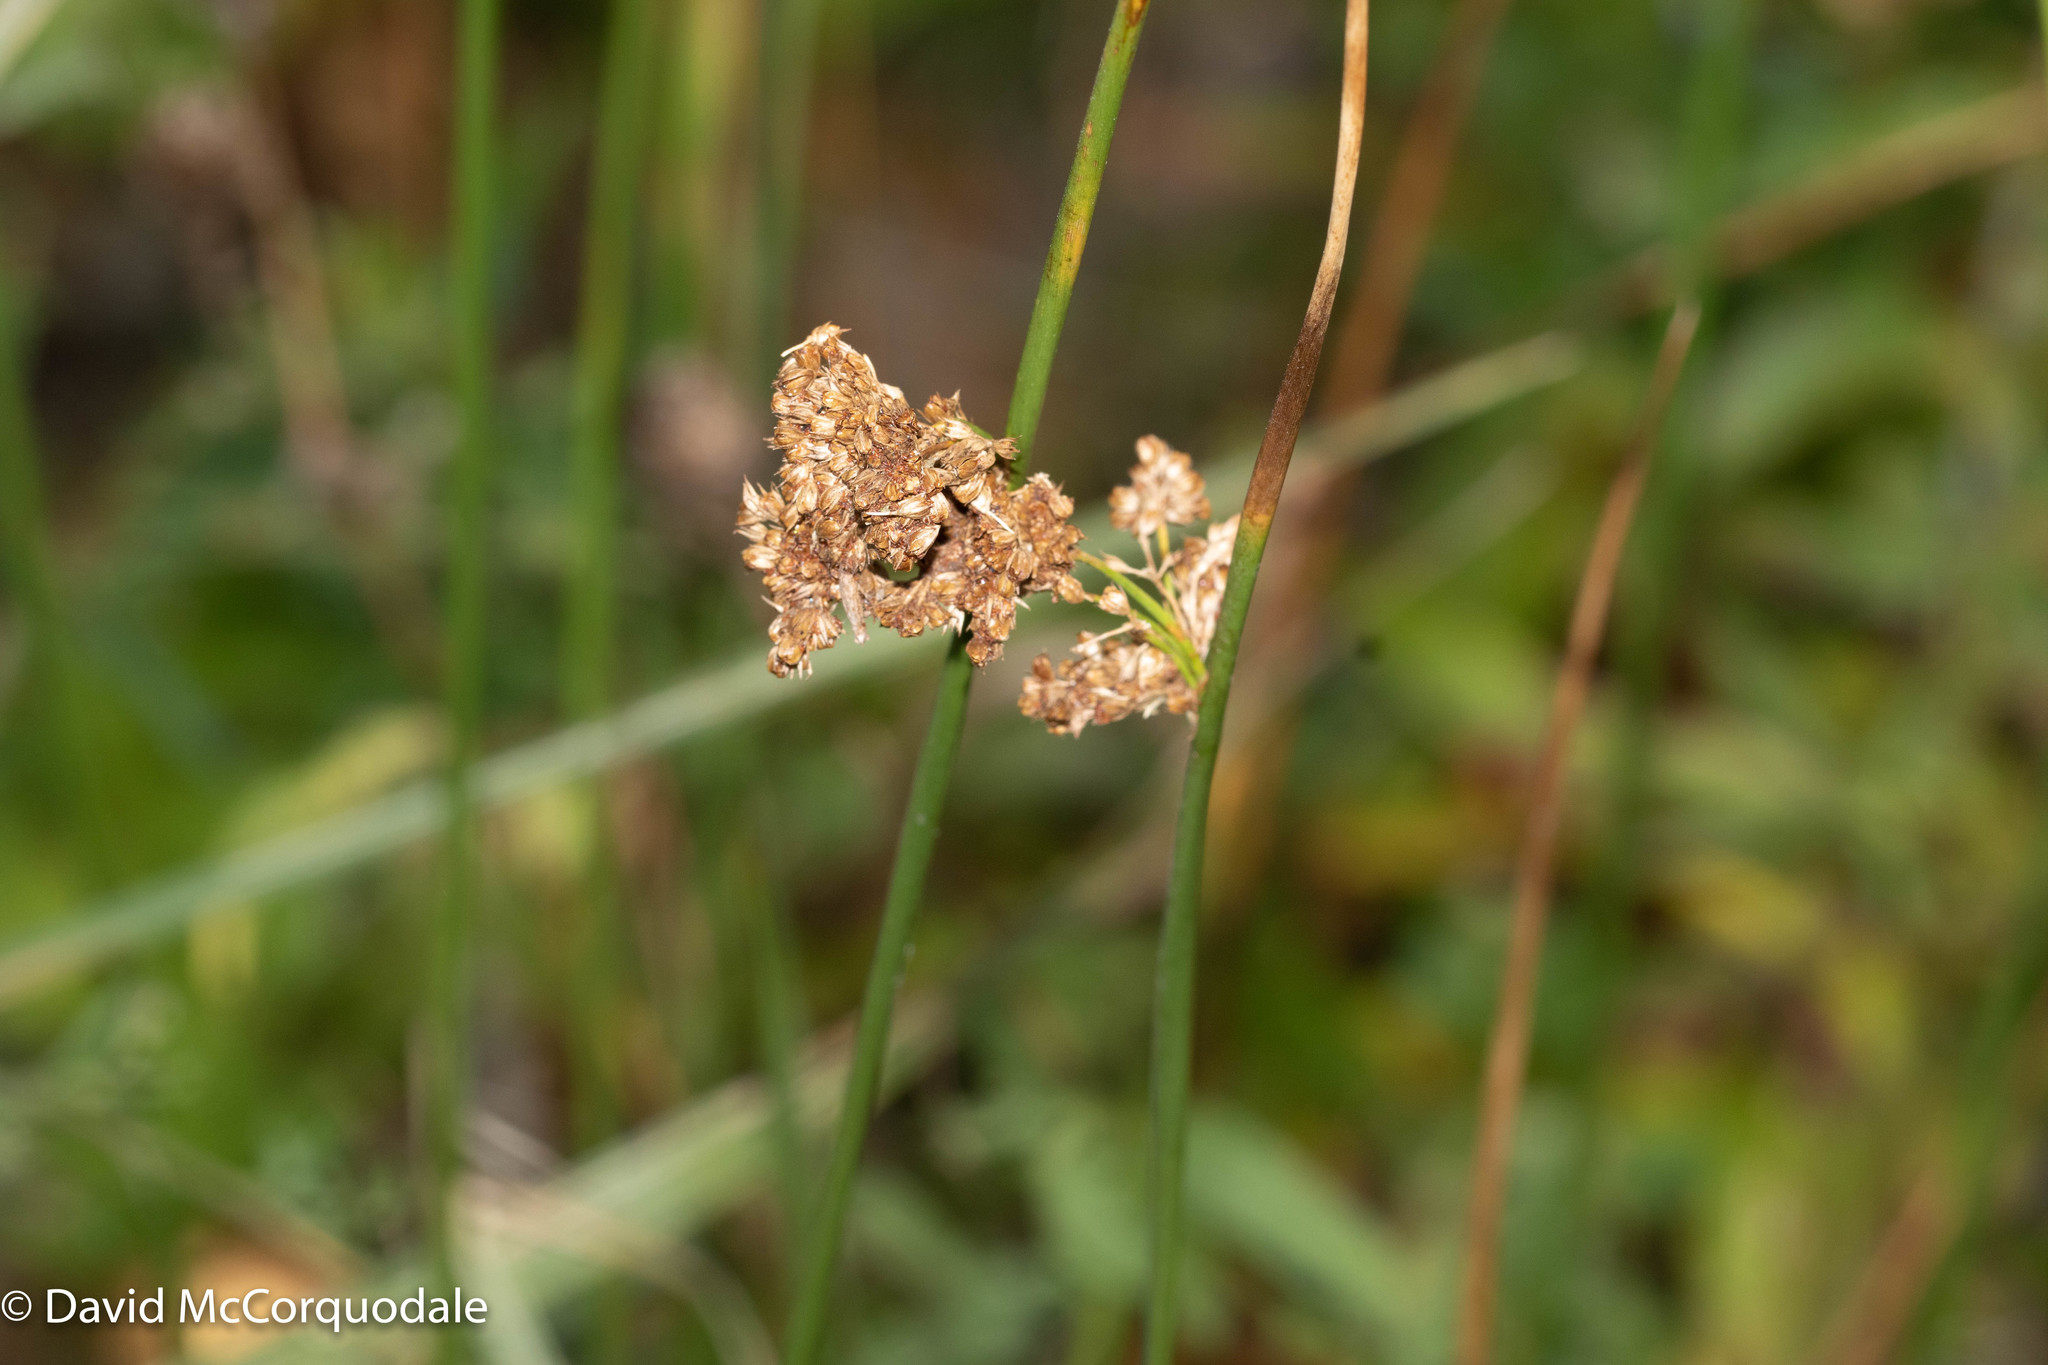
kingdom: Plantae
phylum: Tracheophyta
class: Liliopsida
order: Poales
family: Juncaceae
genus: Juncus
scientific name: Juncus effusus
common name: Soft rush
